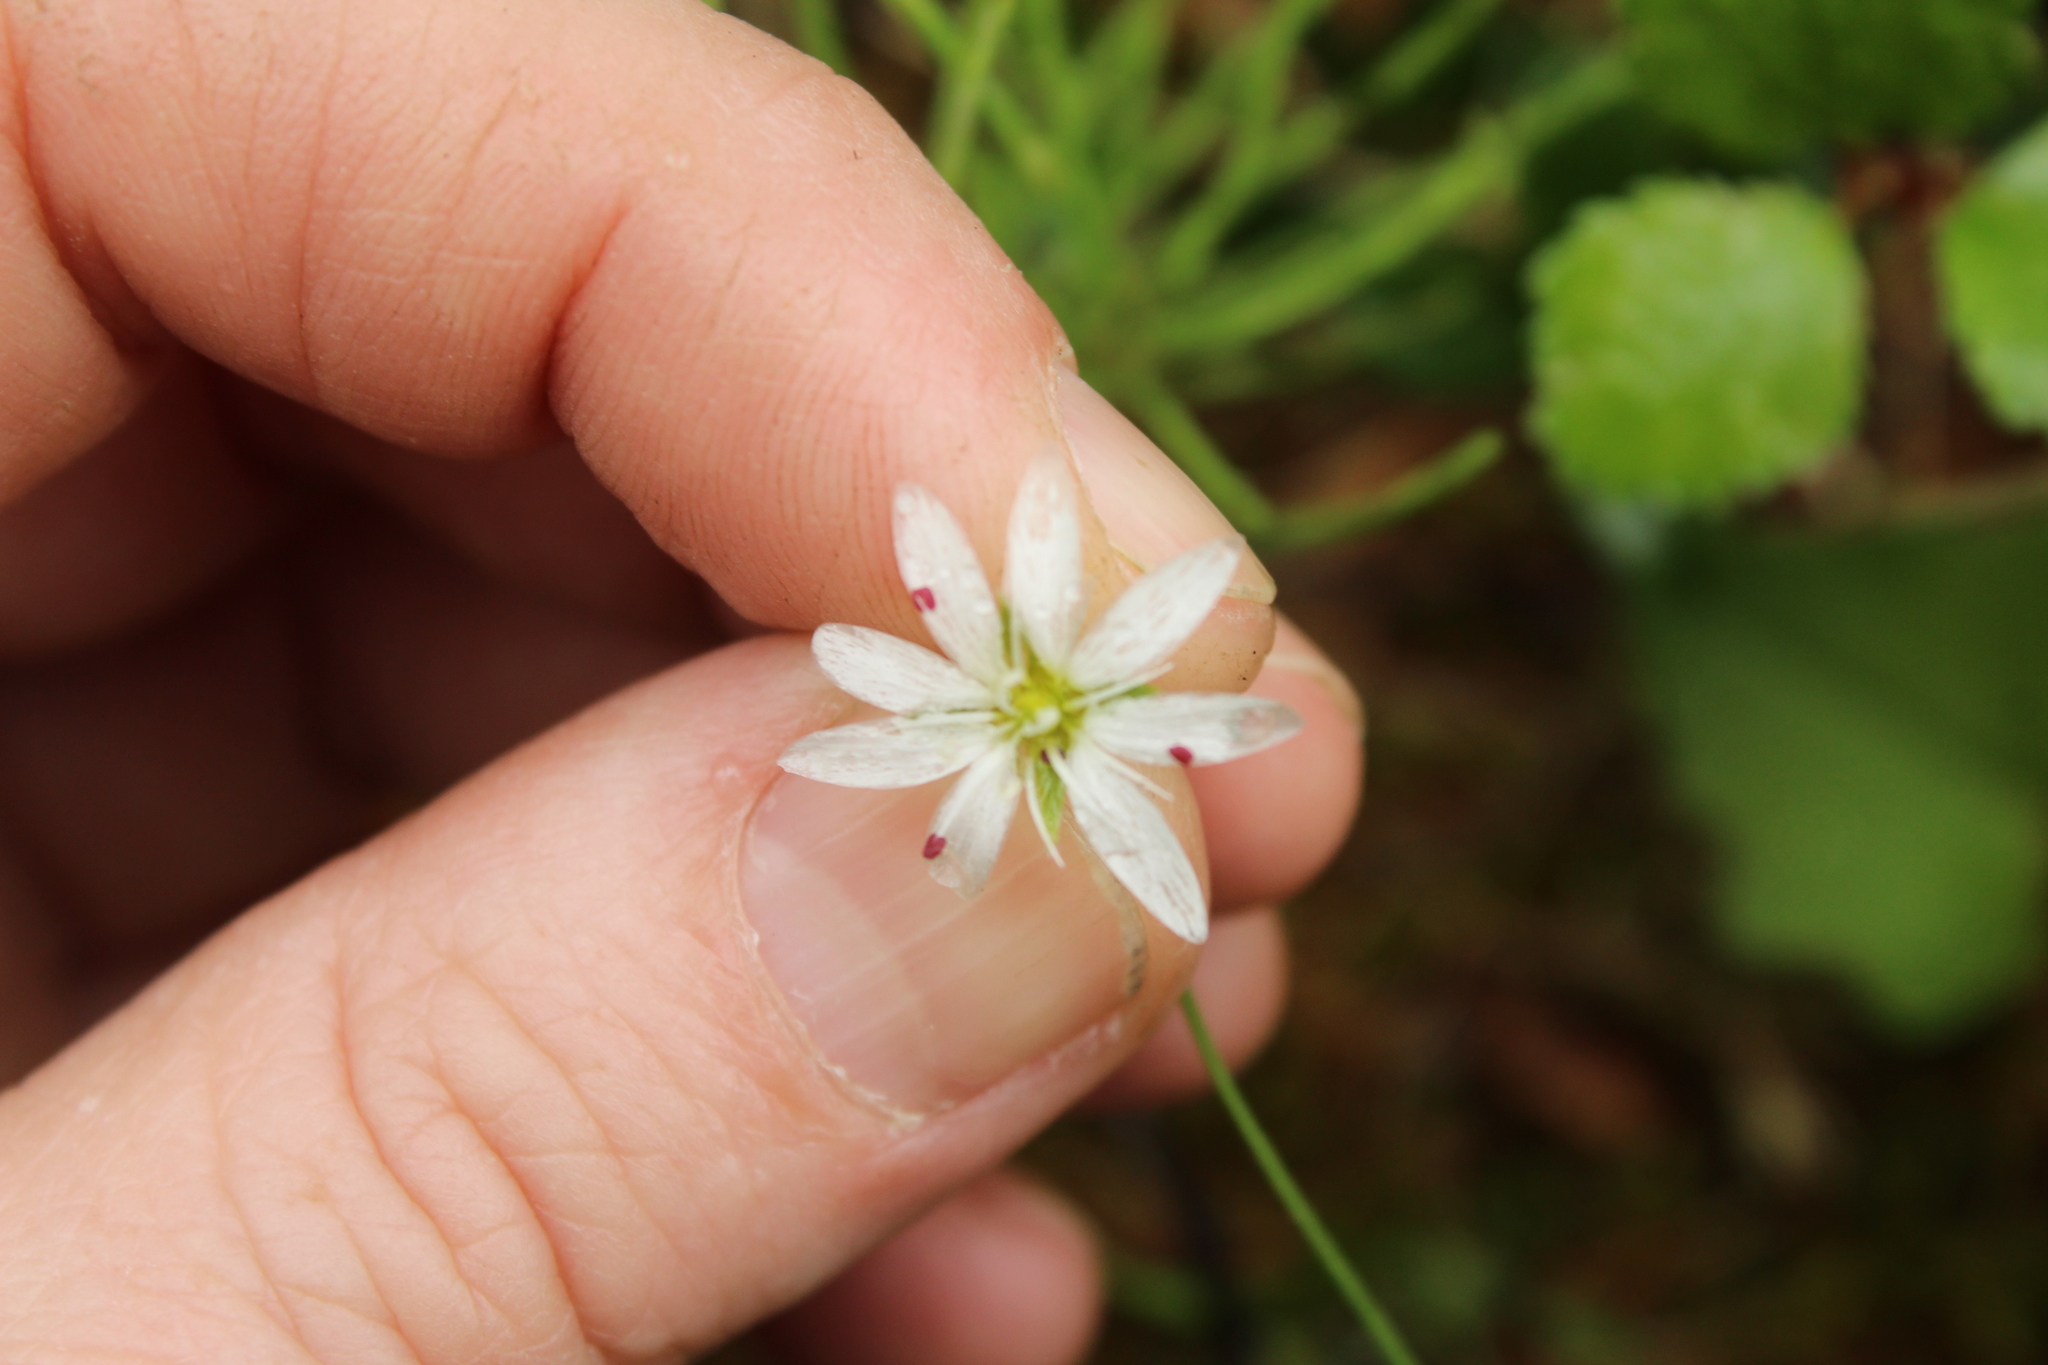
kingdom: Plantae
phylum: Tracheophyta
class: Magnoliopsida
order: Caryophyllales
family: Caryophyllaceae
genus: Stellaria
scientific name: Stellaria peduncularis
